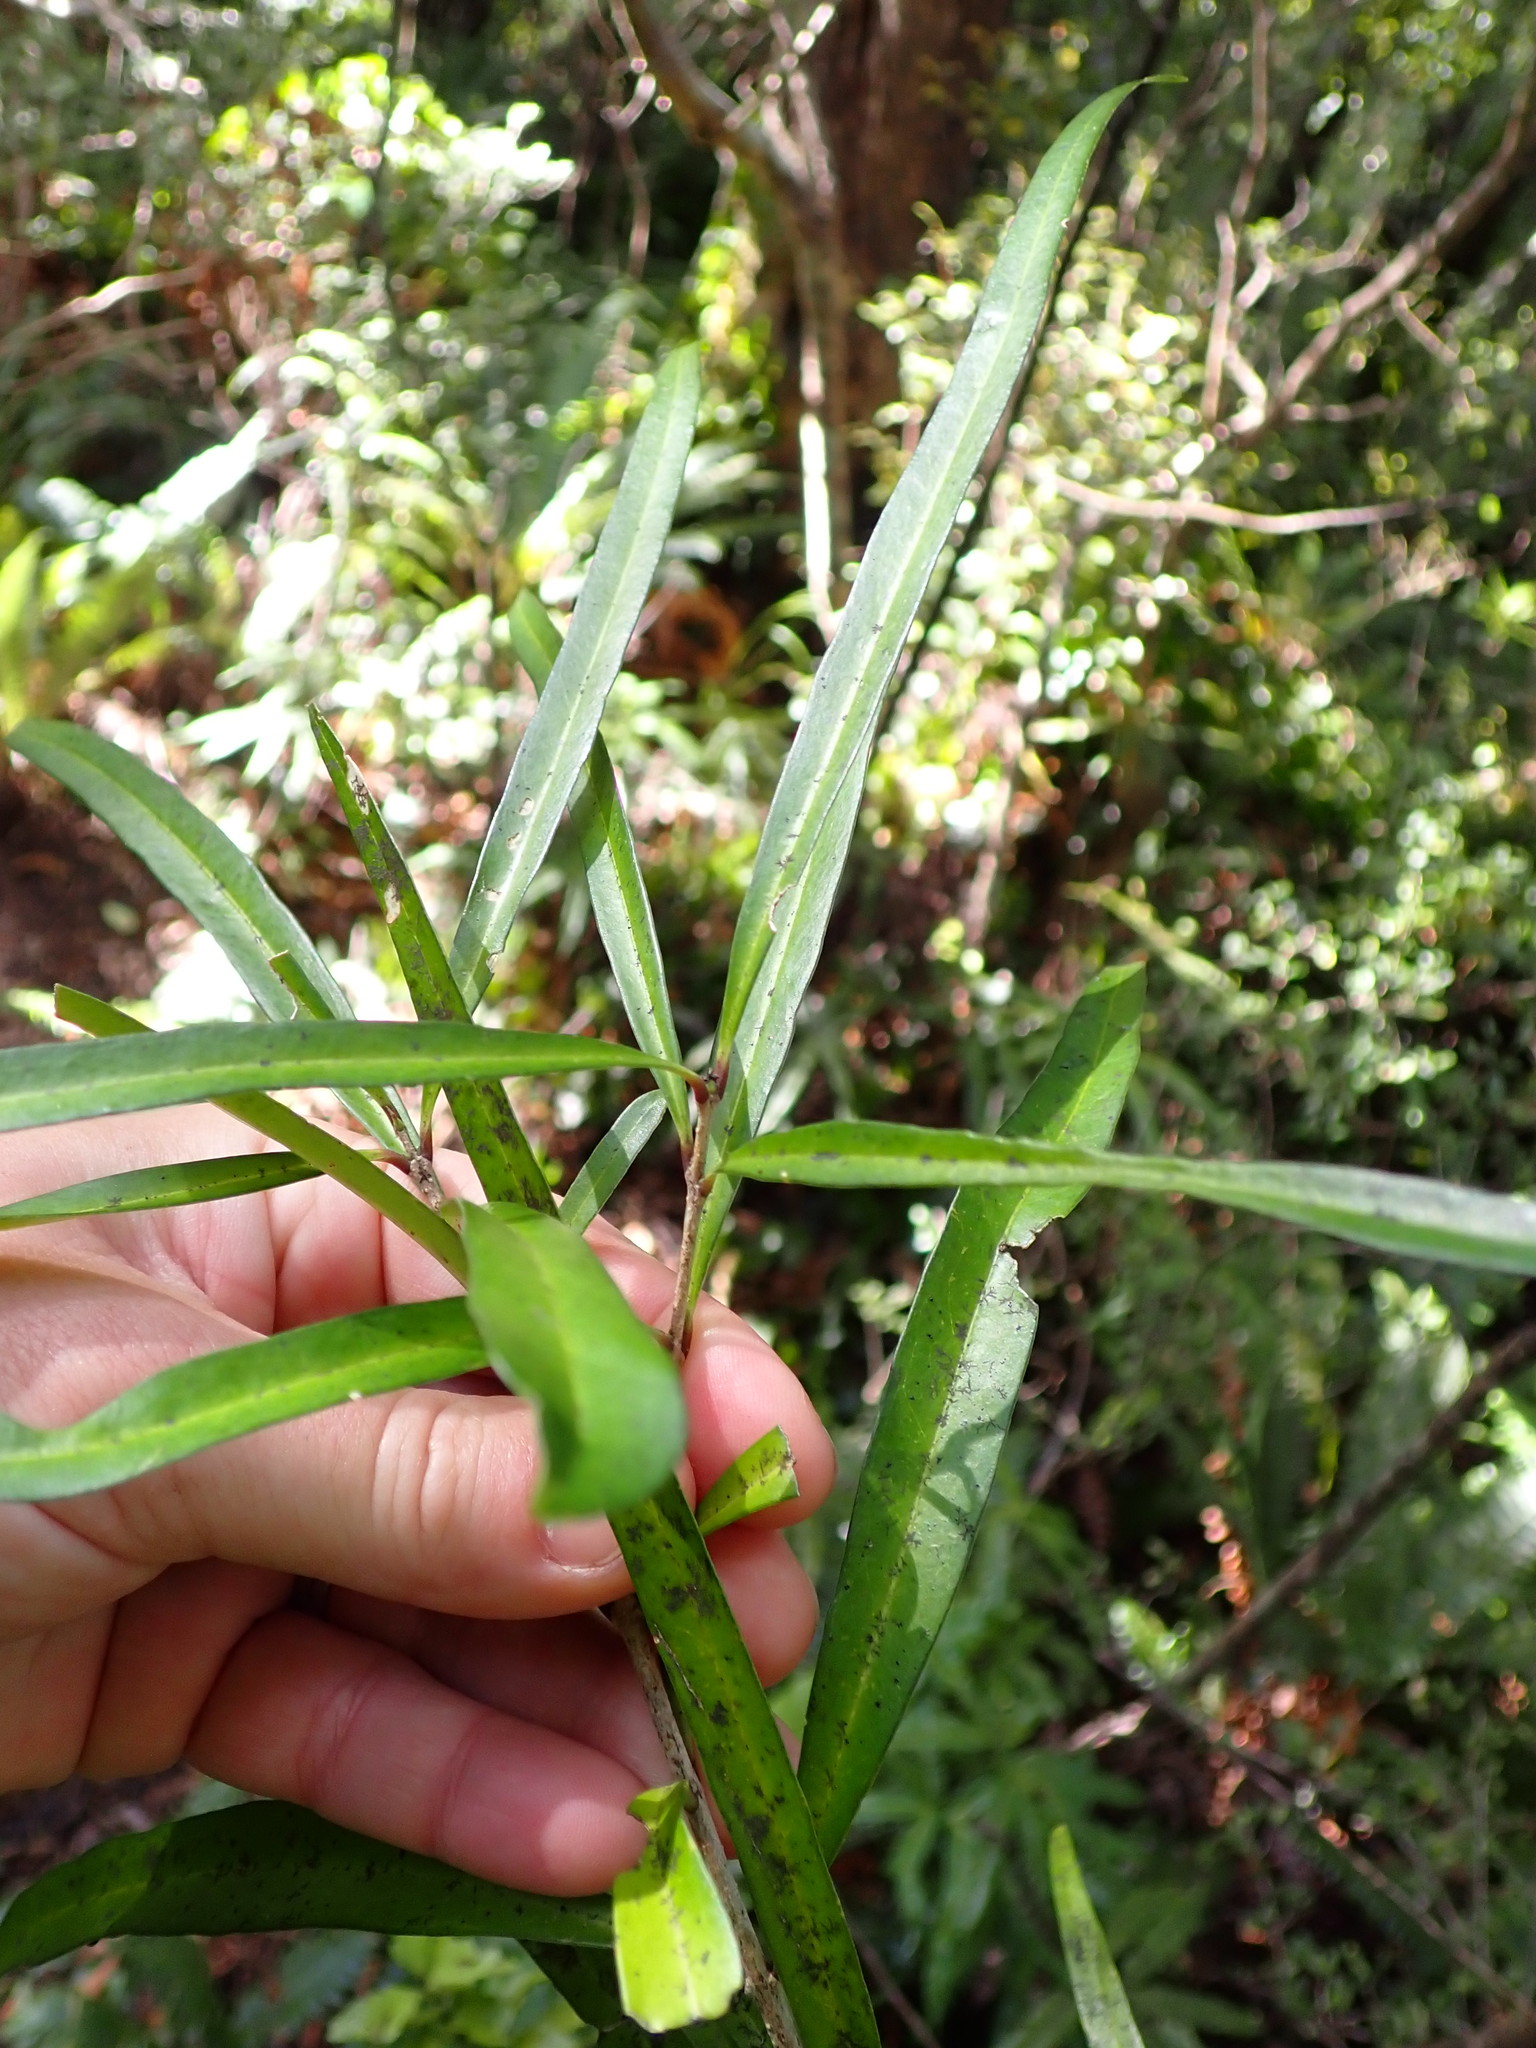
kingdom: Plantae
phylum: Tracheophyta
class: Magnoliopsida
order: Lamiales
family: Oleaceae
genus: Nestegis
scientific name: Nestegis lanceolata
